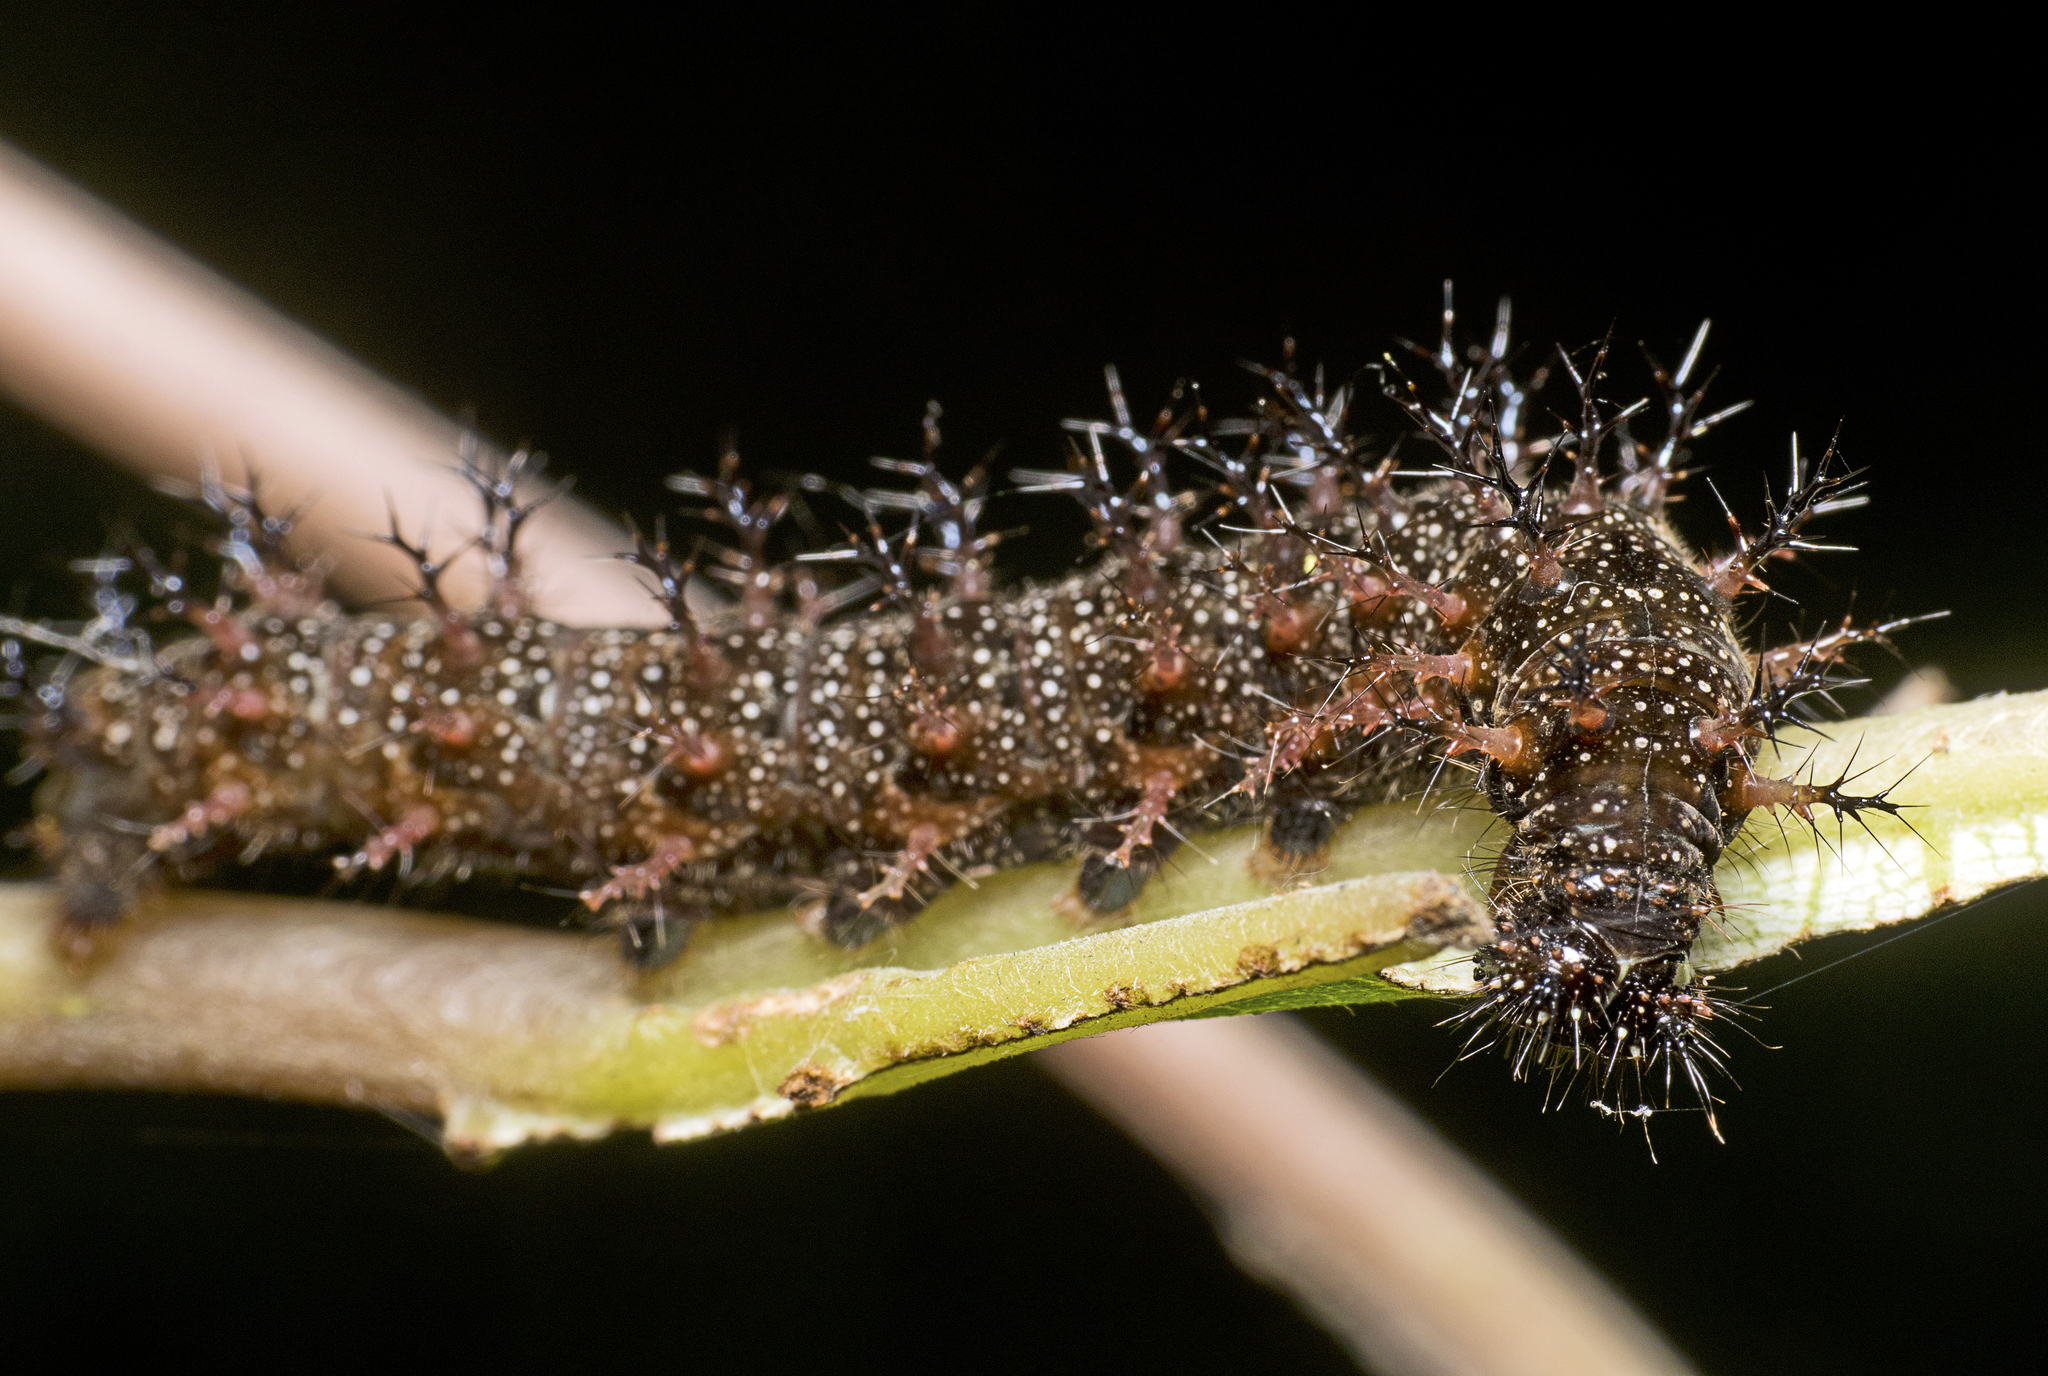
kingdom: Animalia
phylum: Arthropoda
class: Insecta
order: Lepidoptera
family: Nymphalidae
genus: Mynes
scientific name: Mynes geoffroyi
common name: Jezebel nymph
